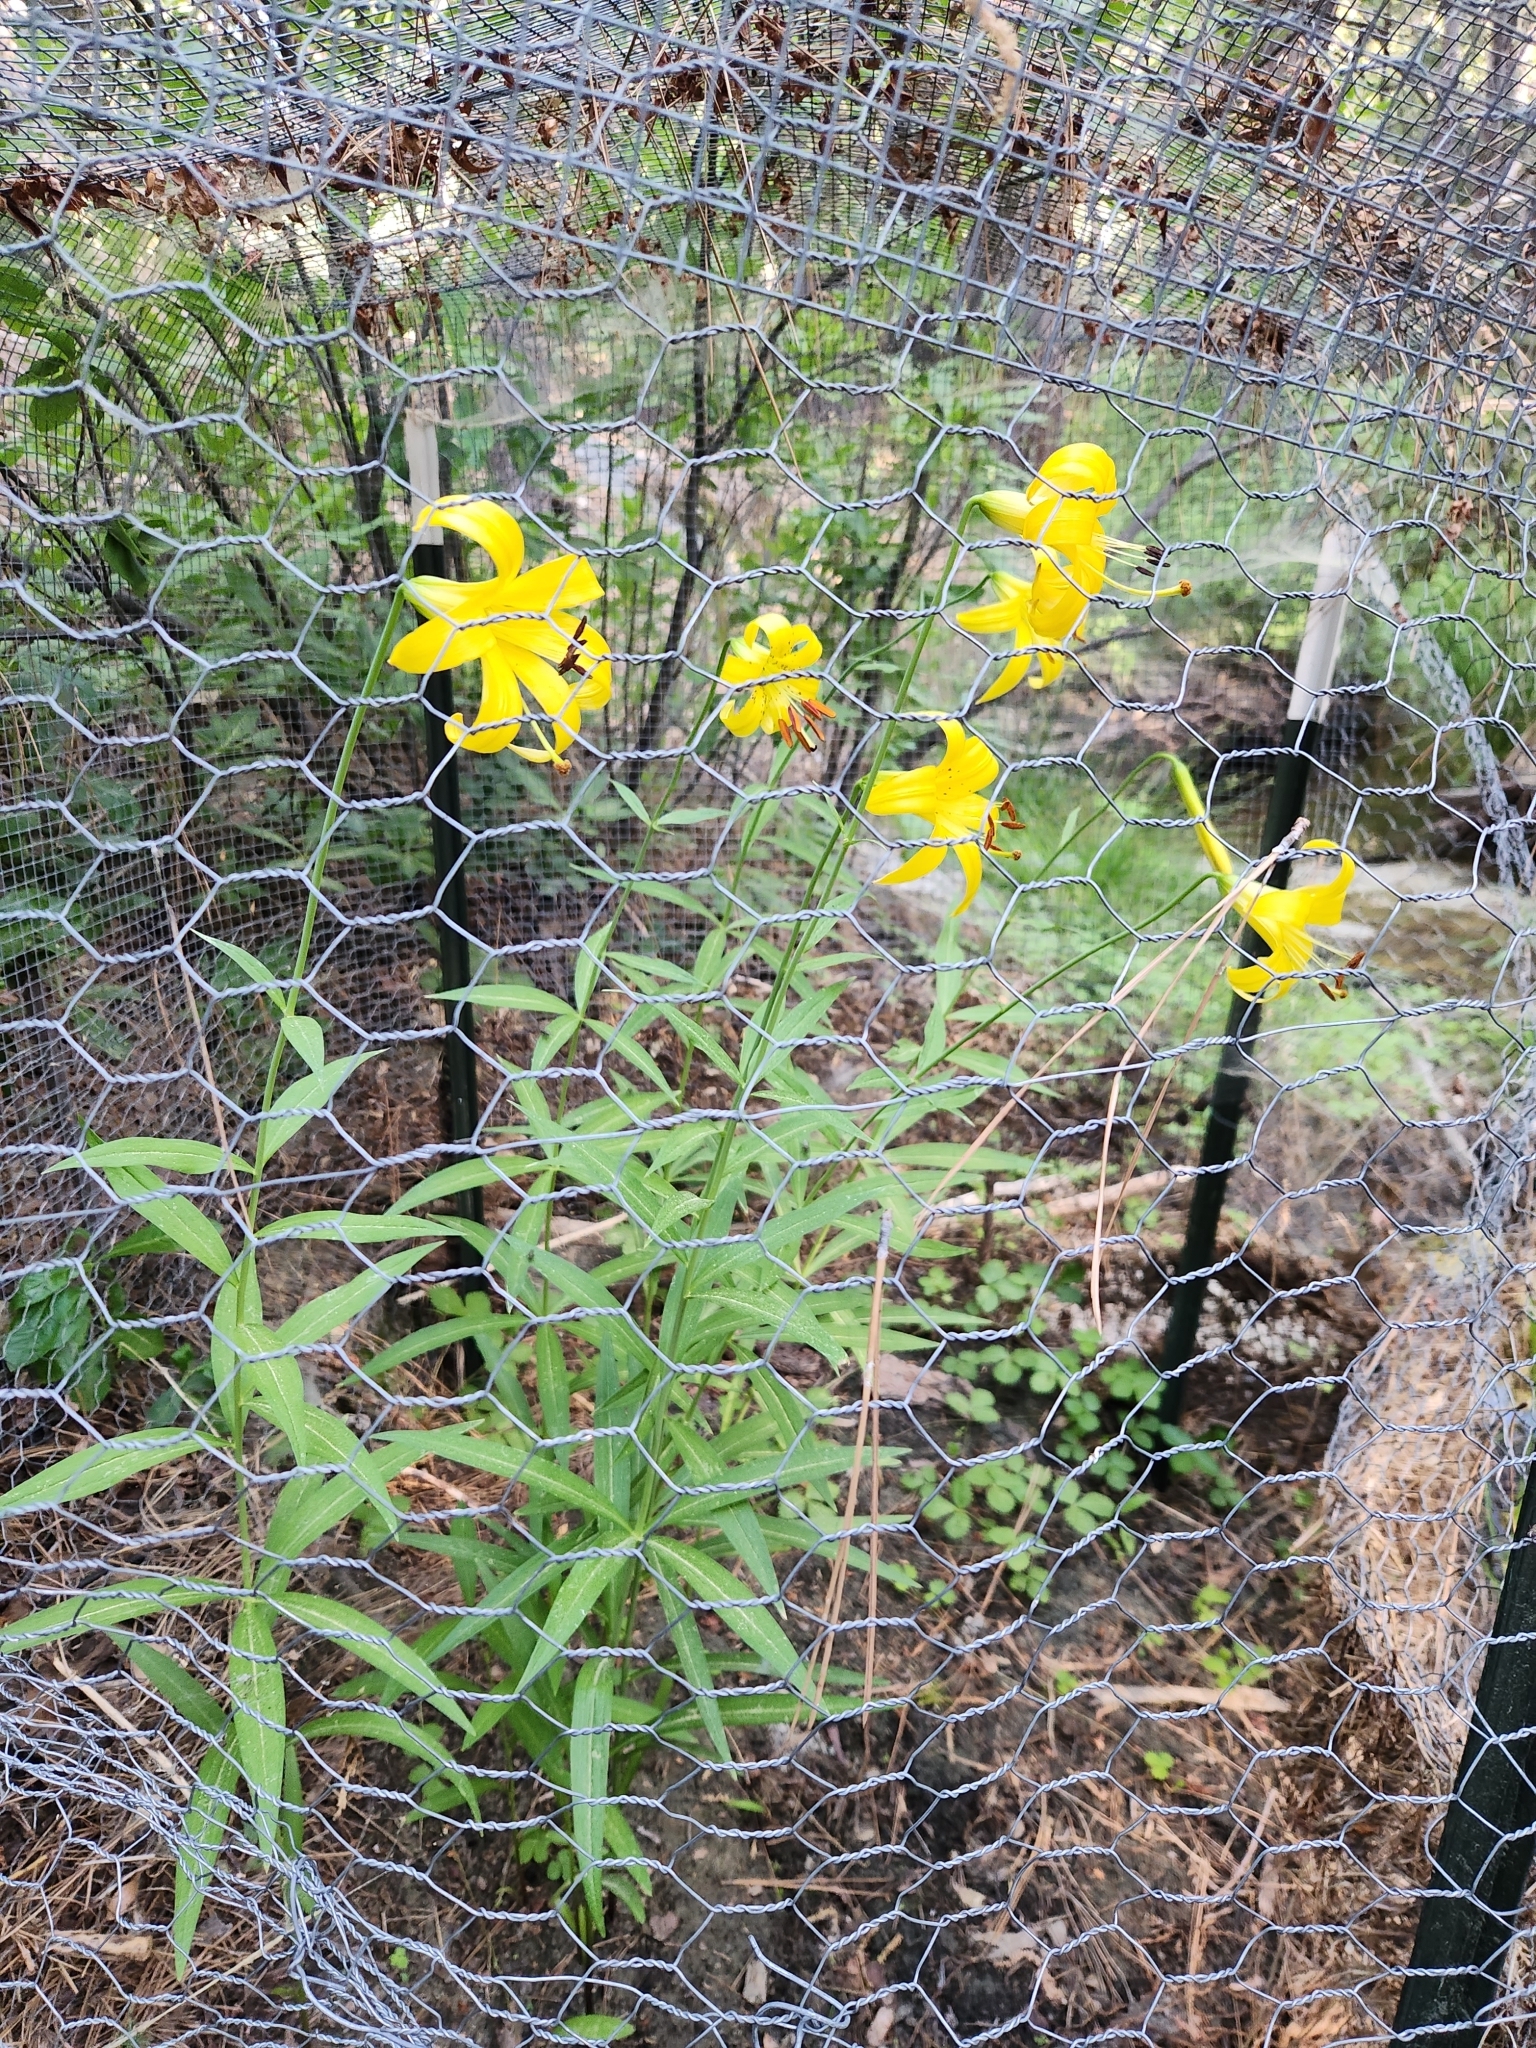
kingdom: Plantae
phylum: Tracheophyta
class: Liliopsida
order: Liliales
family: Liliaceae
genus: Lilium
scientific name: Lilium parryi
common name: Lemon lily
